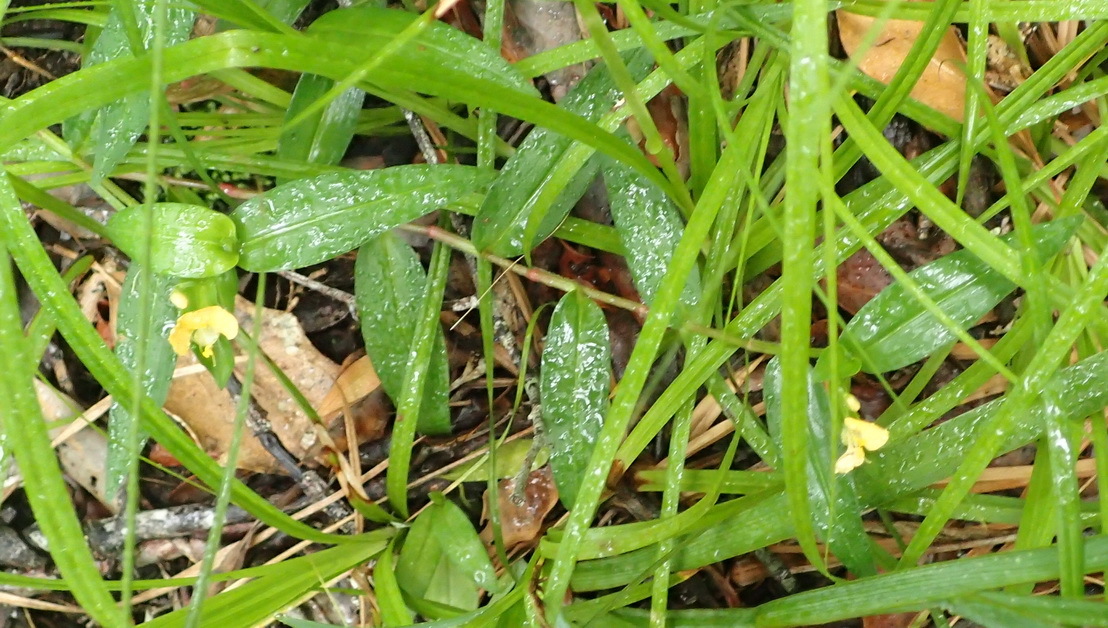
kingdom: Plantae
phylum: Tracheophyta
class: Liliopsida
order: Commelinales
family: Commelinaceae
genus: Commelina
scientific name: Commelina africana
